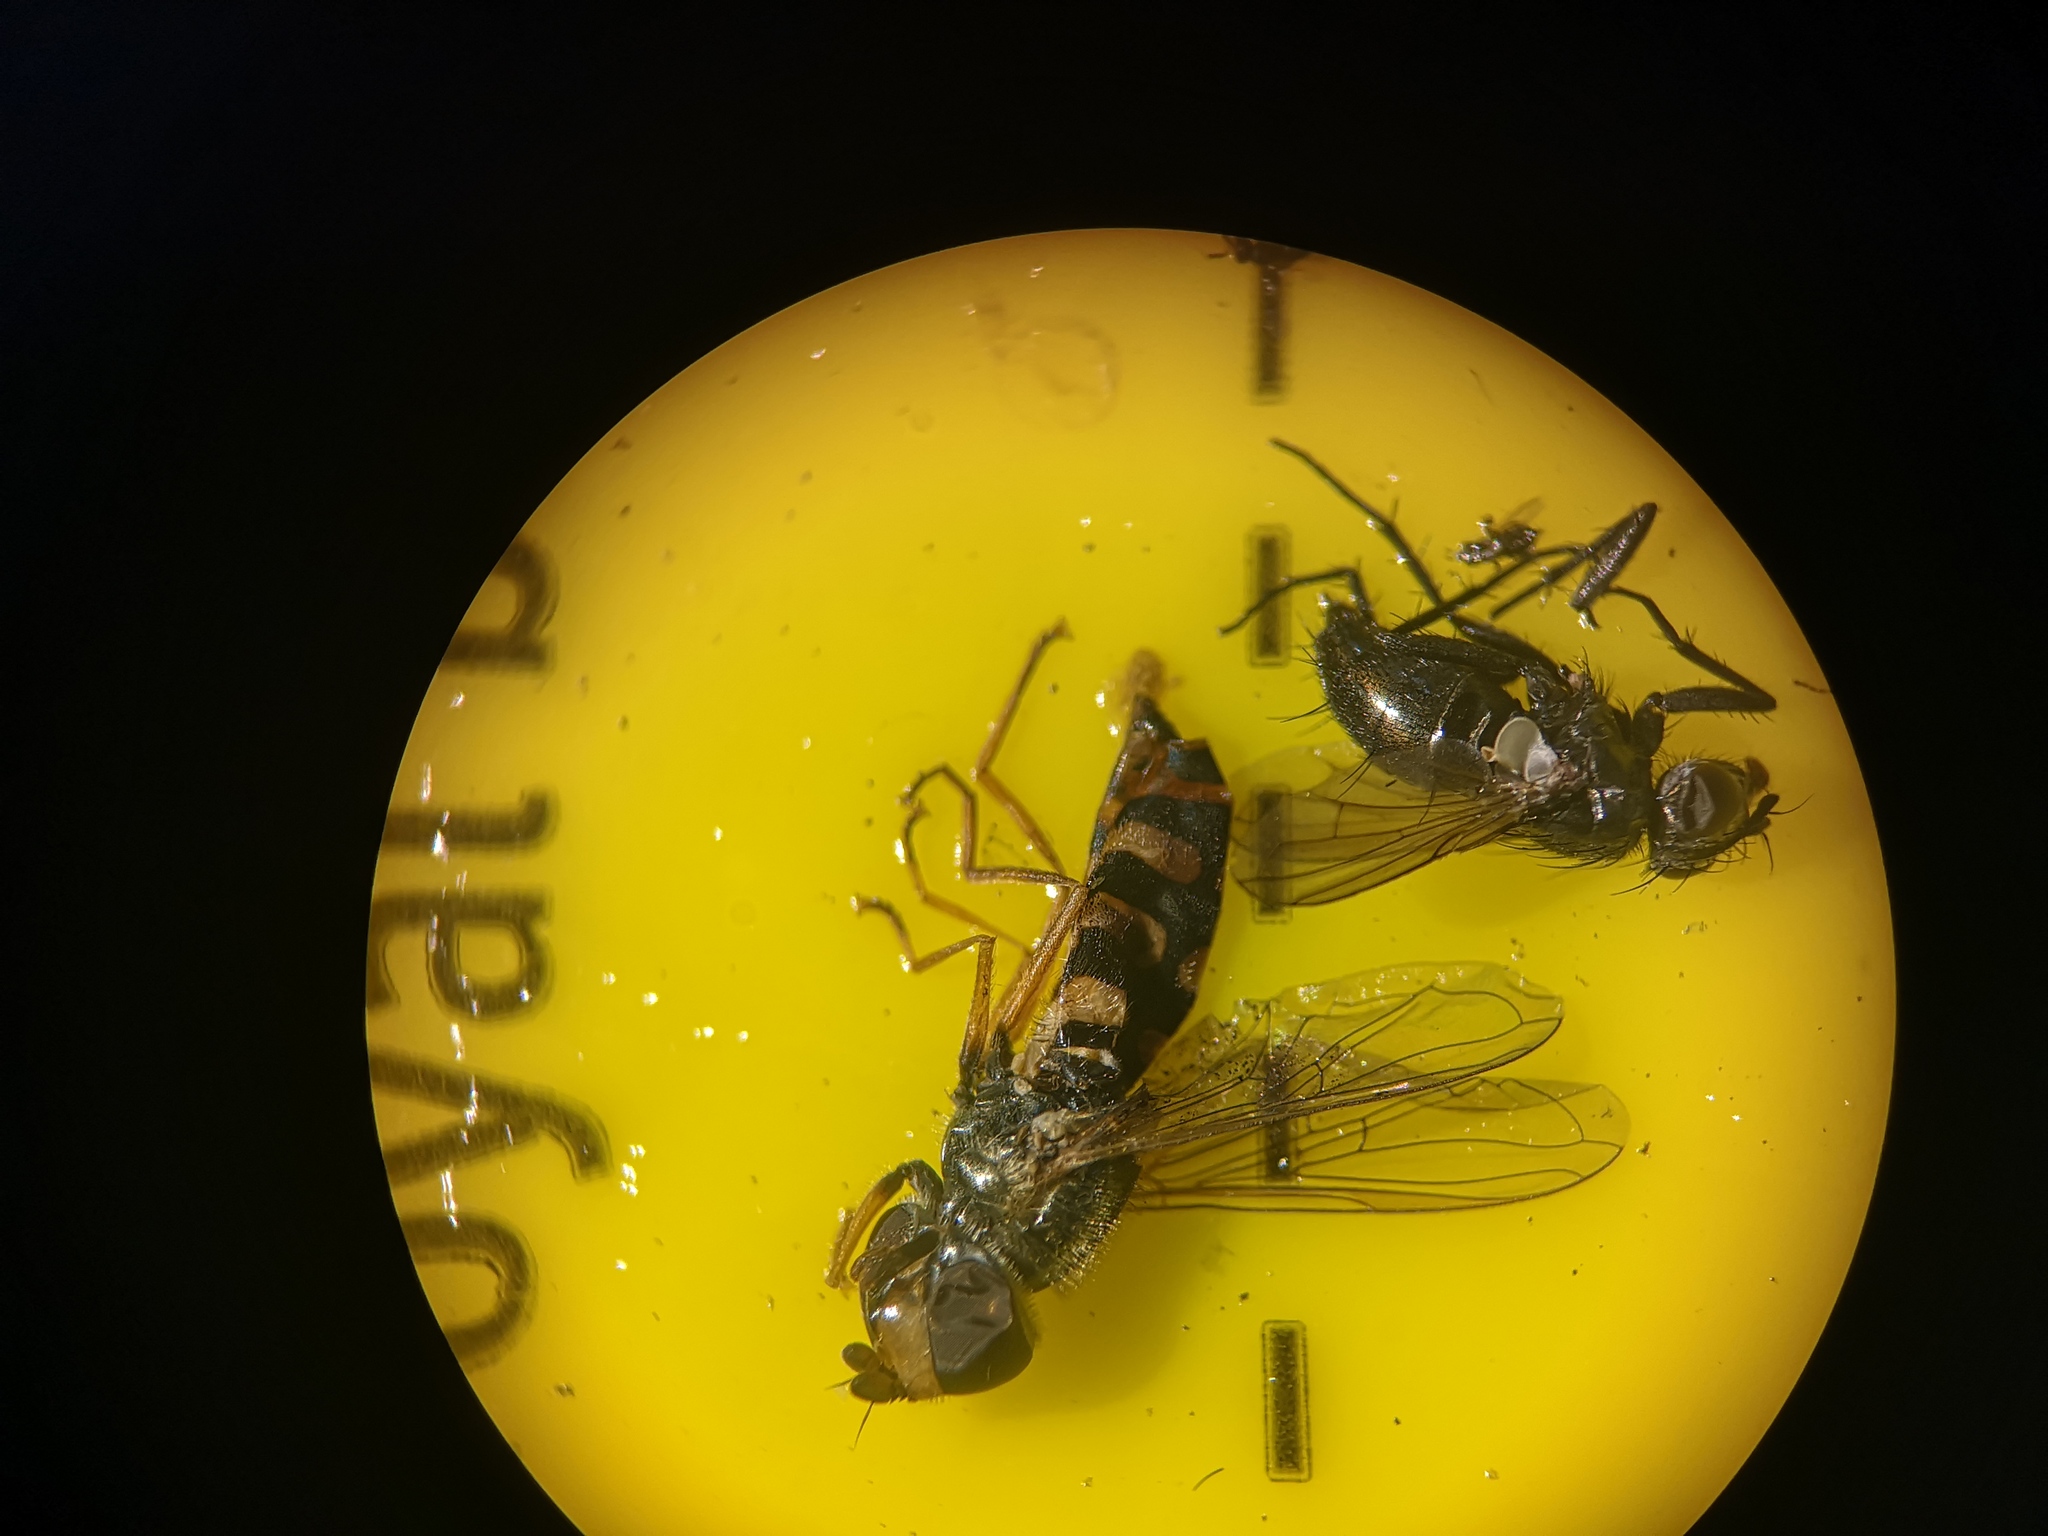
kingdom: Animalia
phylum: Arthropoda
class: Insecta
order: Diptera
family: Syrphidae
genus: Eupeodes
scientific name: Eupeodes corollae
